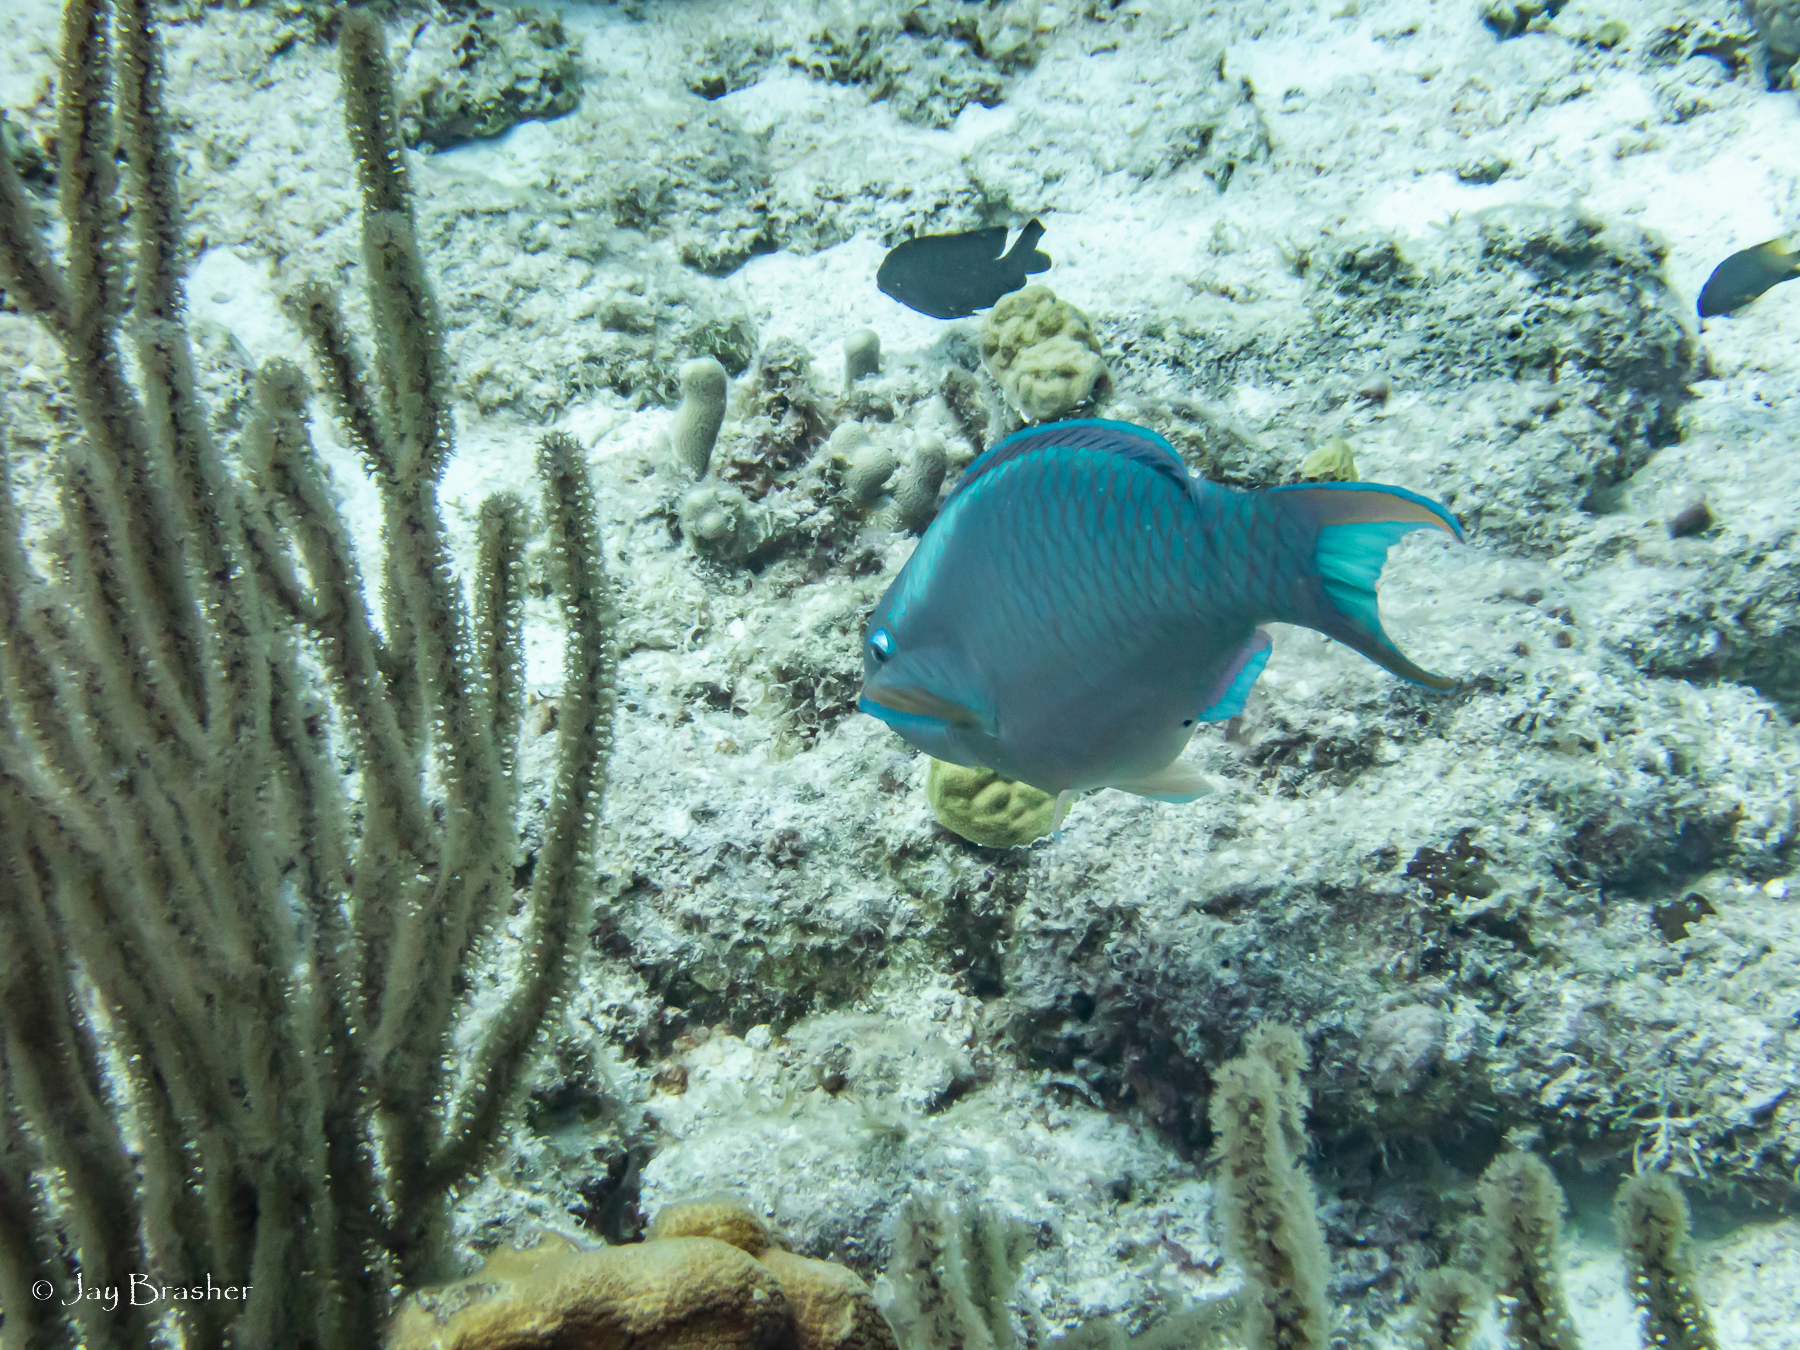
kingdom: Animalia
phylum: Chordata
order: Perciformes
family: Scaridae
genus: Scarus
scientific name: Scarus vetula
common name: Queen parrotfish
